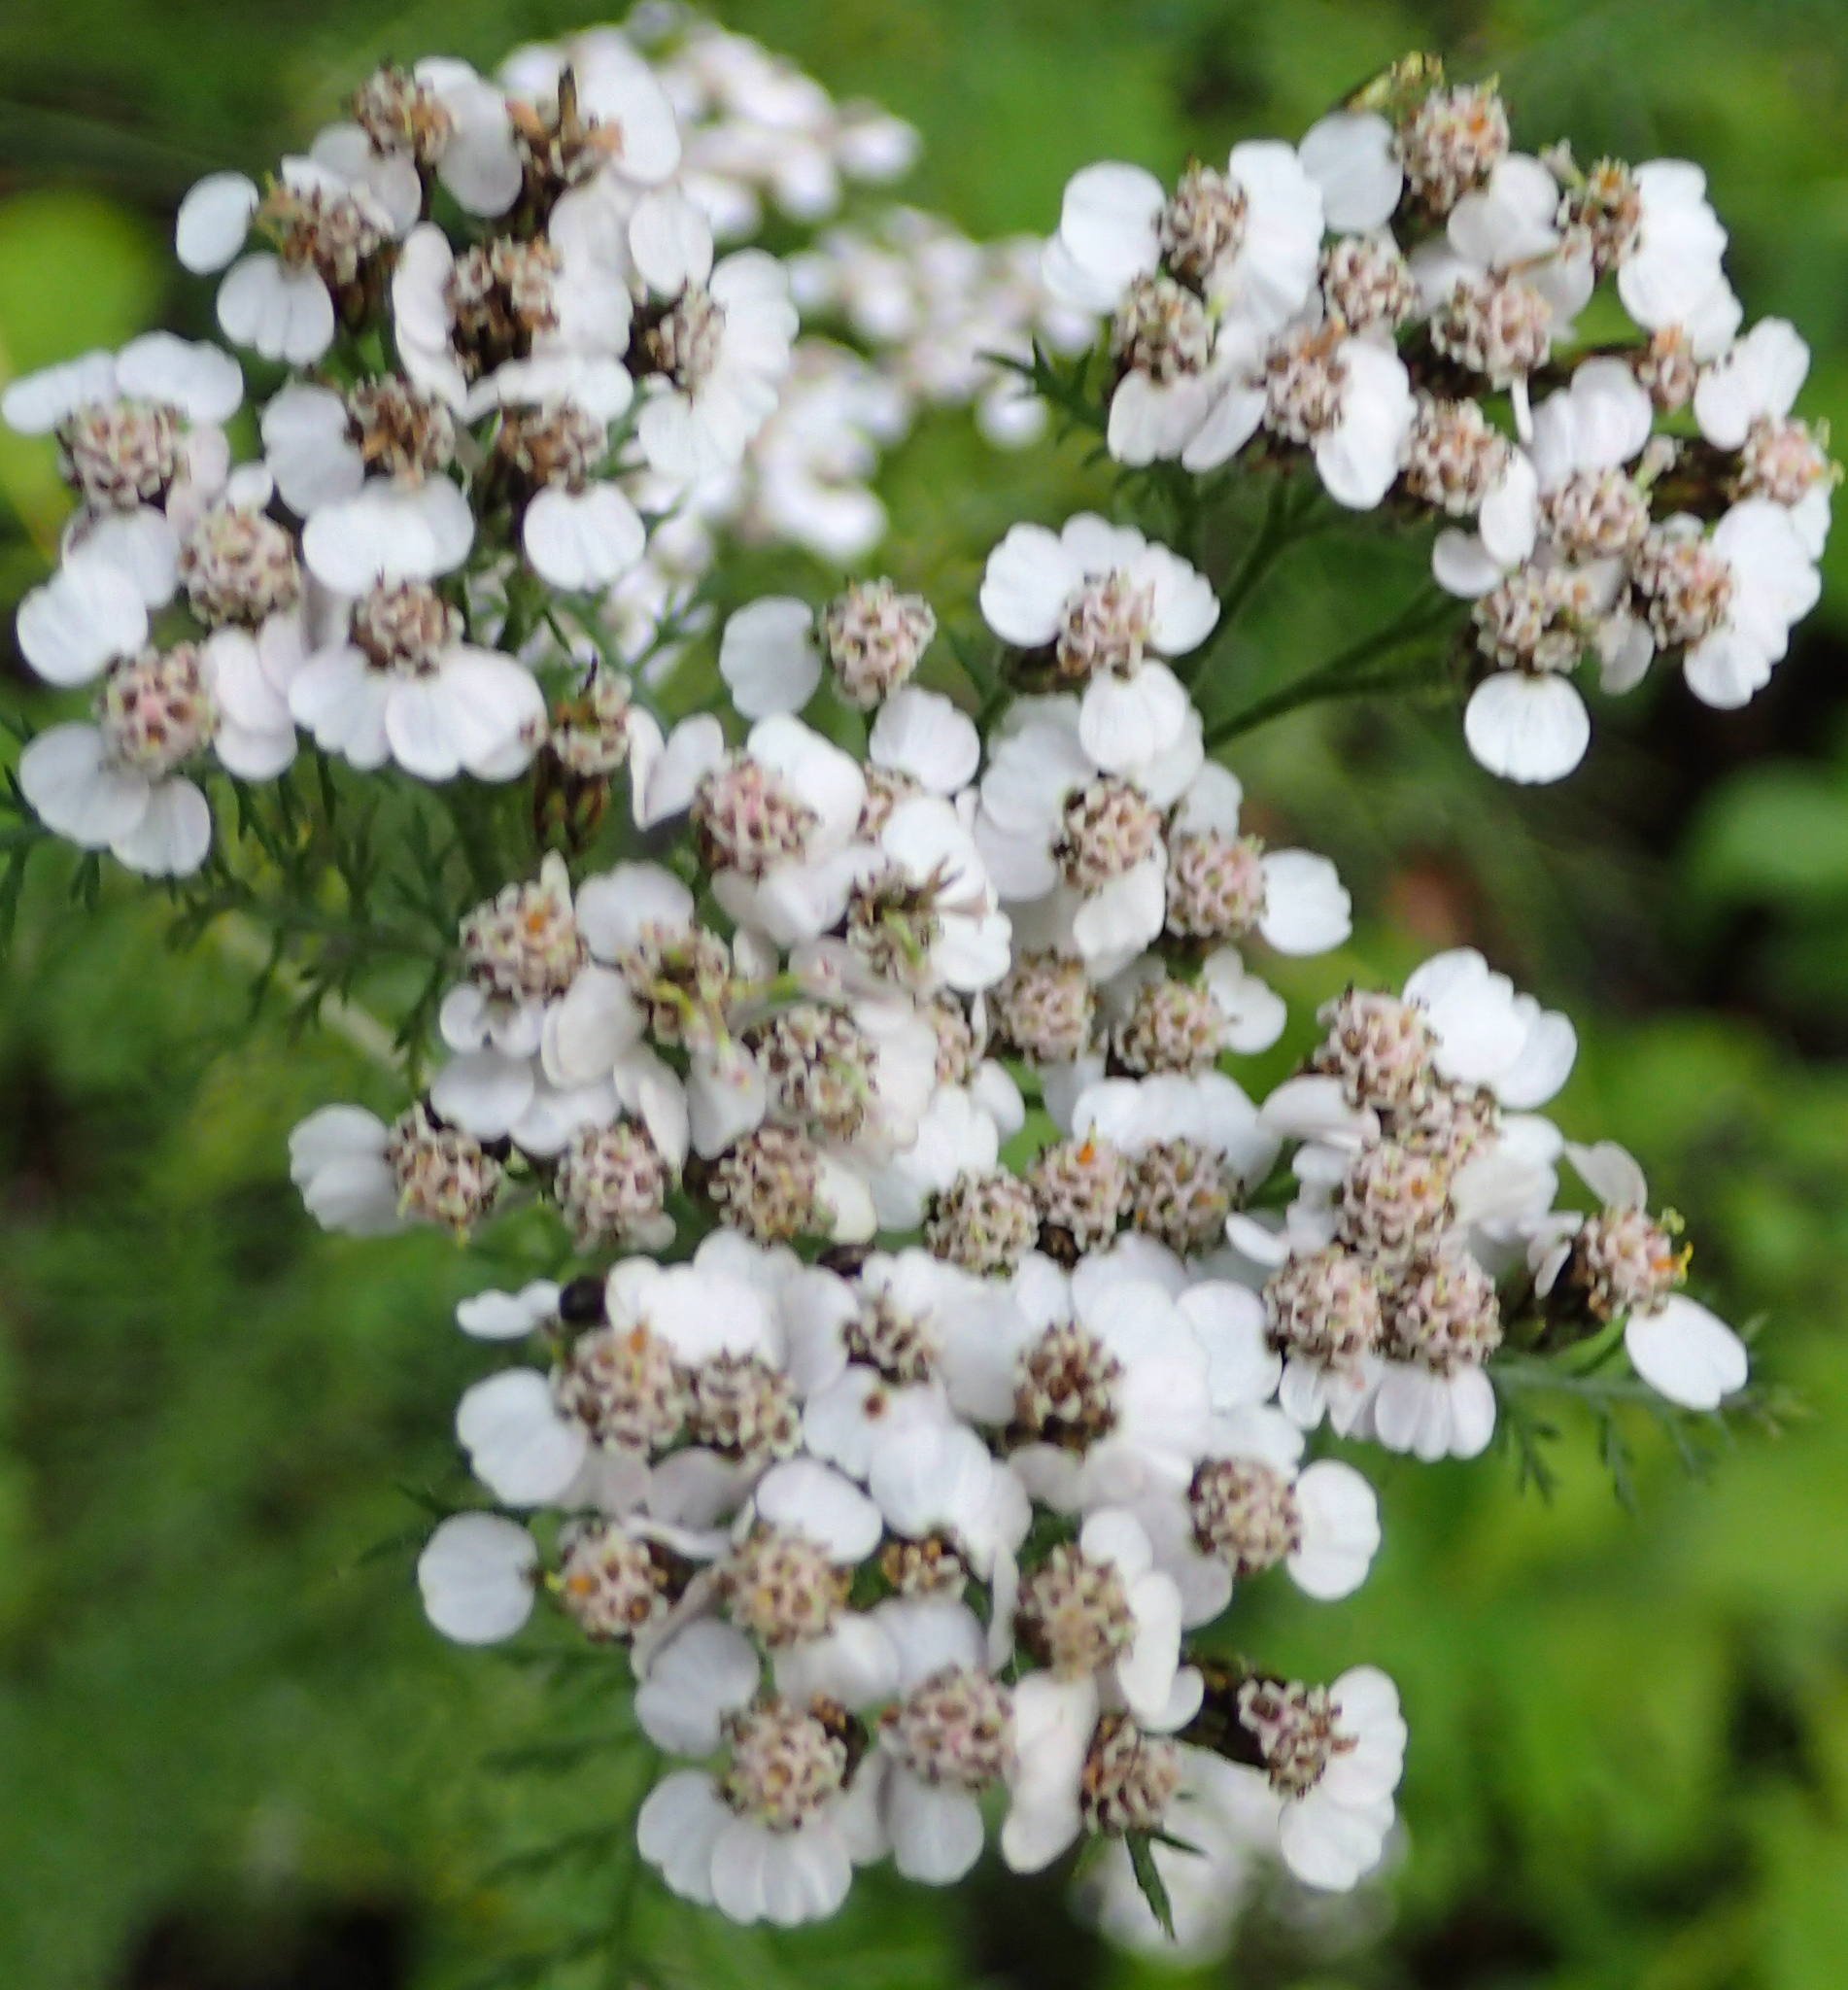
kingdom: Plantae
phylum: Tracheophyta
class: Magnoliopsida
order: Asterales
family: Asteraceae
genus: Achillea
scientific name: Achillea millefolium
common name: Yarrow
